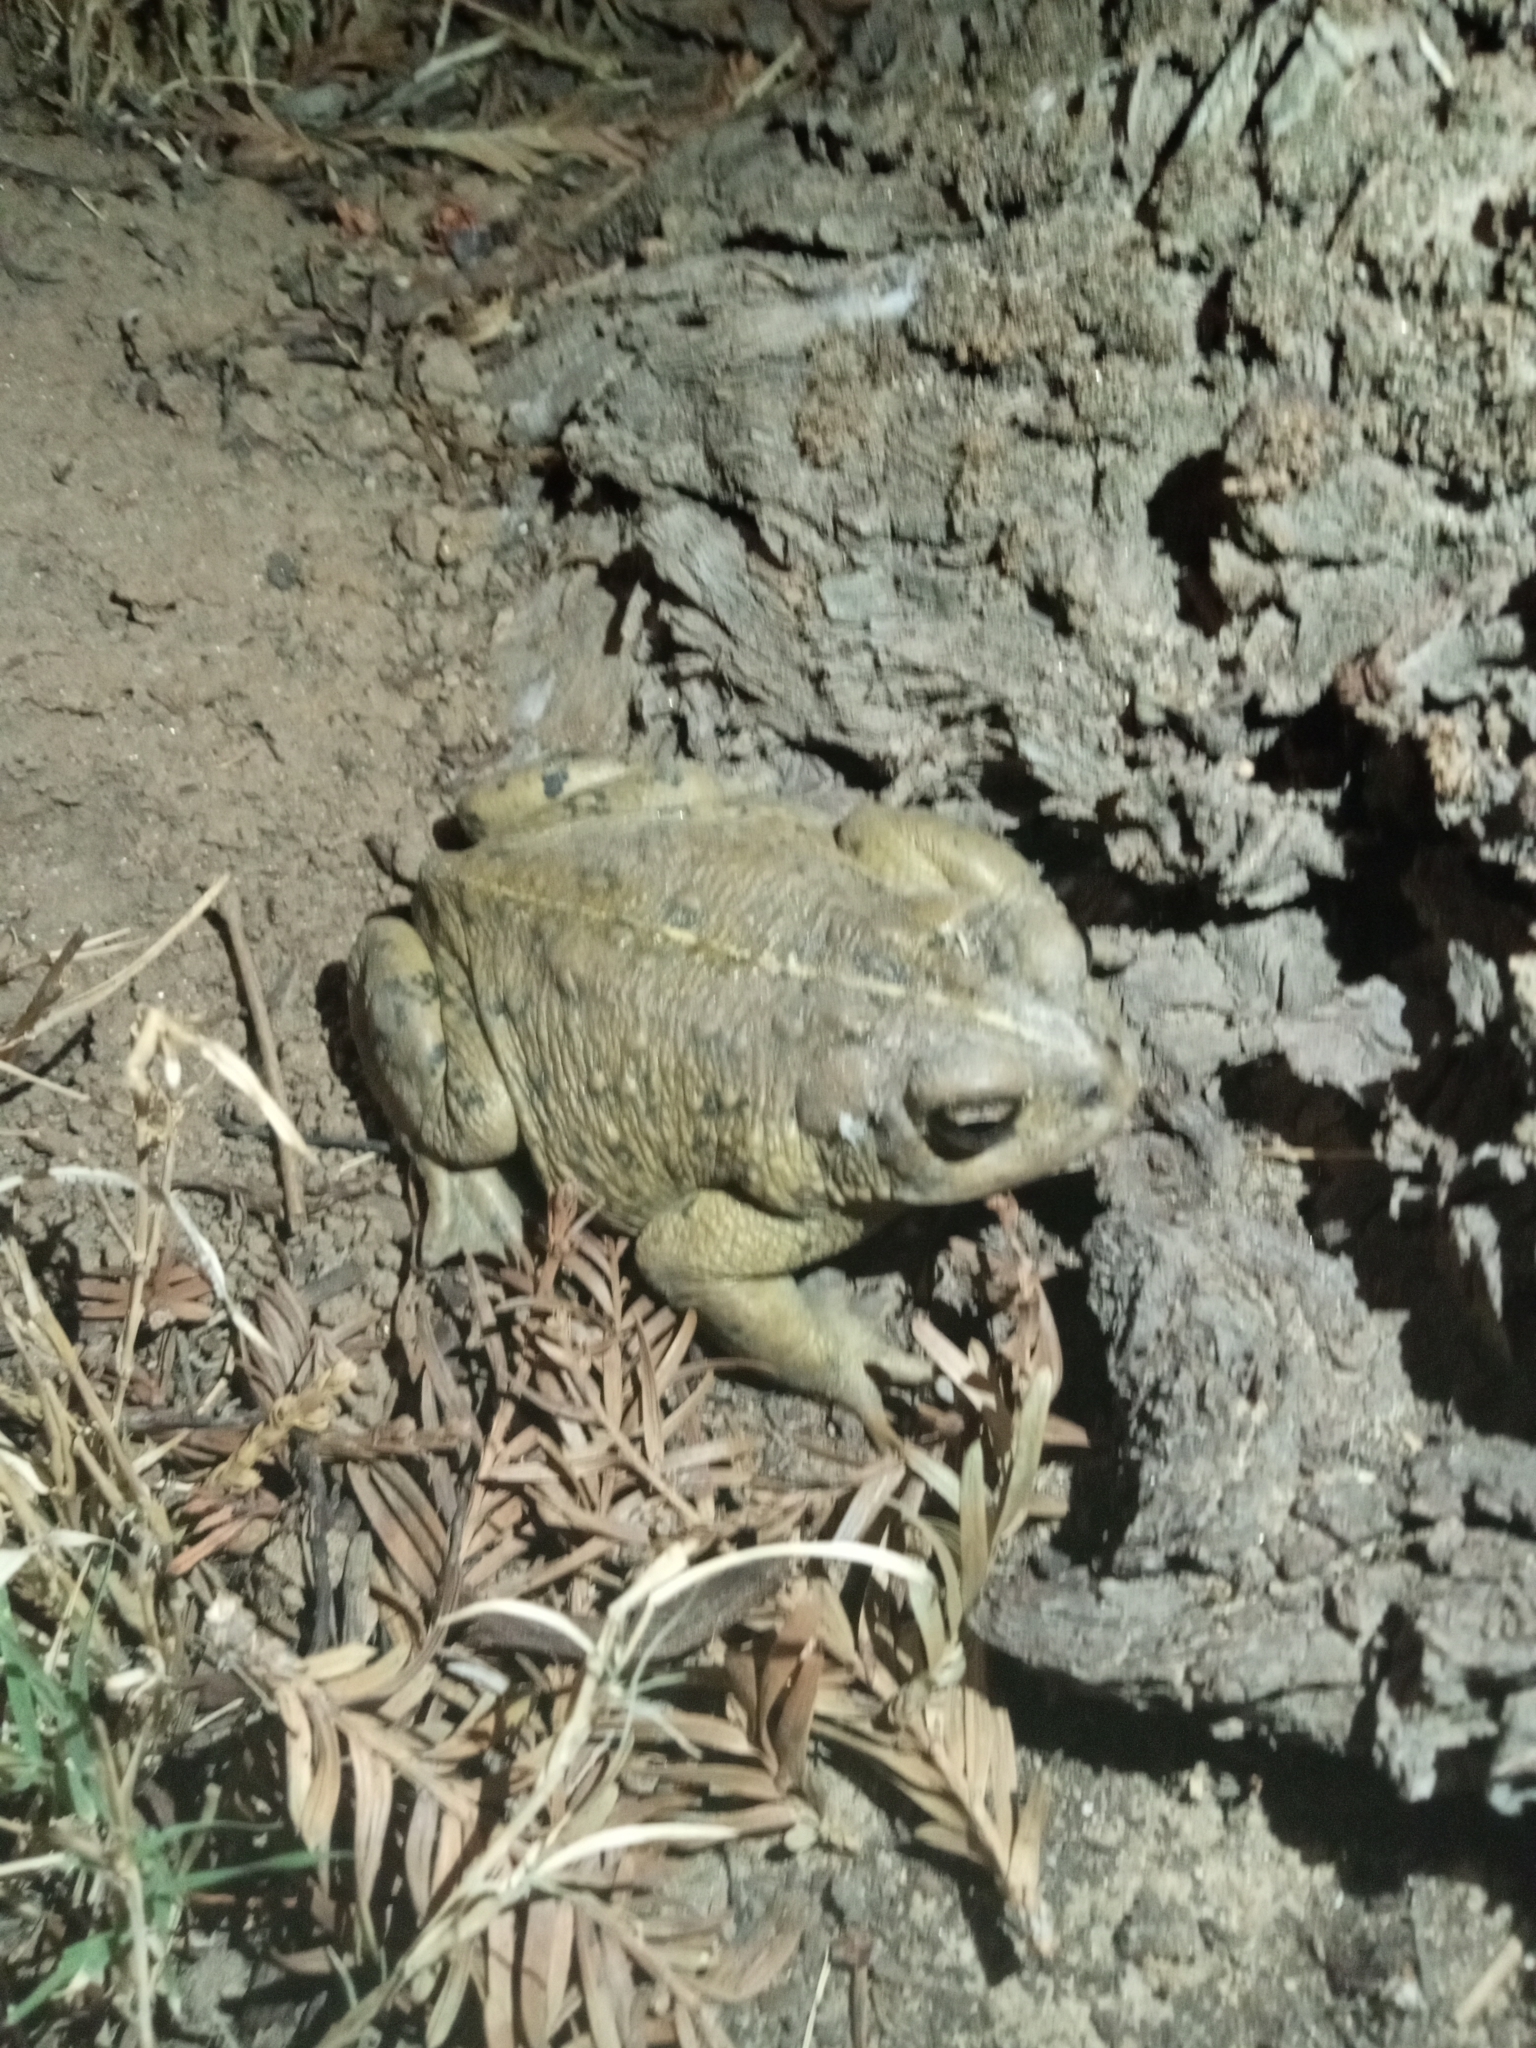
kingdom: Animalia
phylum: Chordata
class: Amphibia
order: Anura
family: Bufonidae
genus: Anaxyrus
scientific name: Anaxyrus boreas
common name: Western toad
